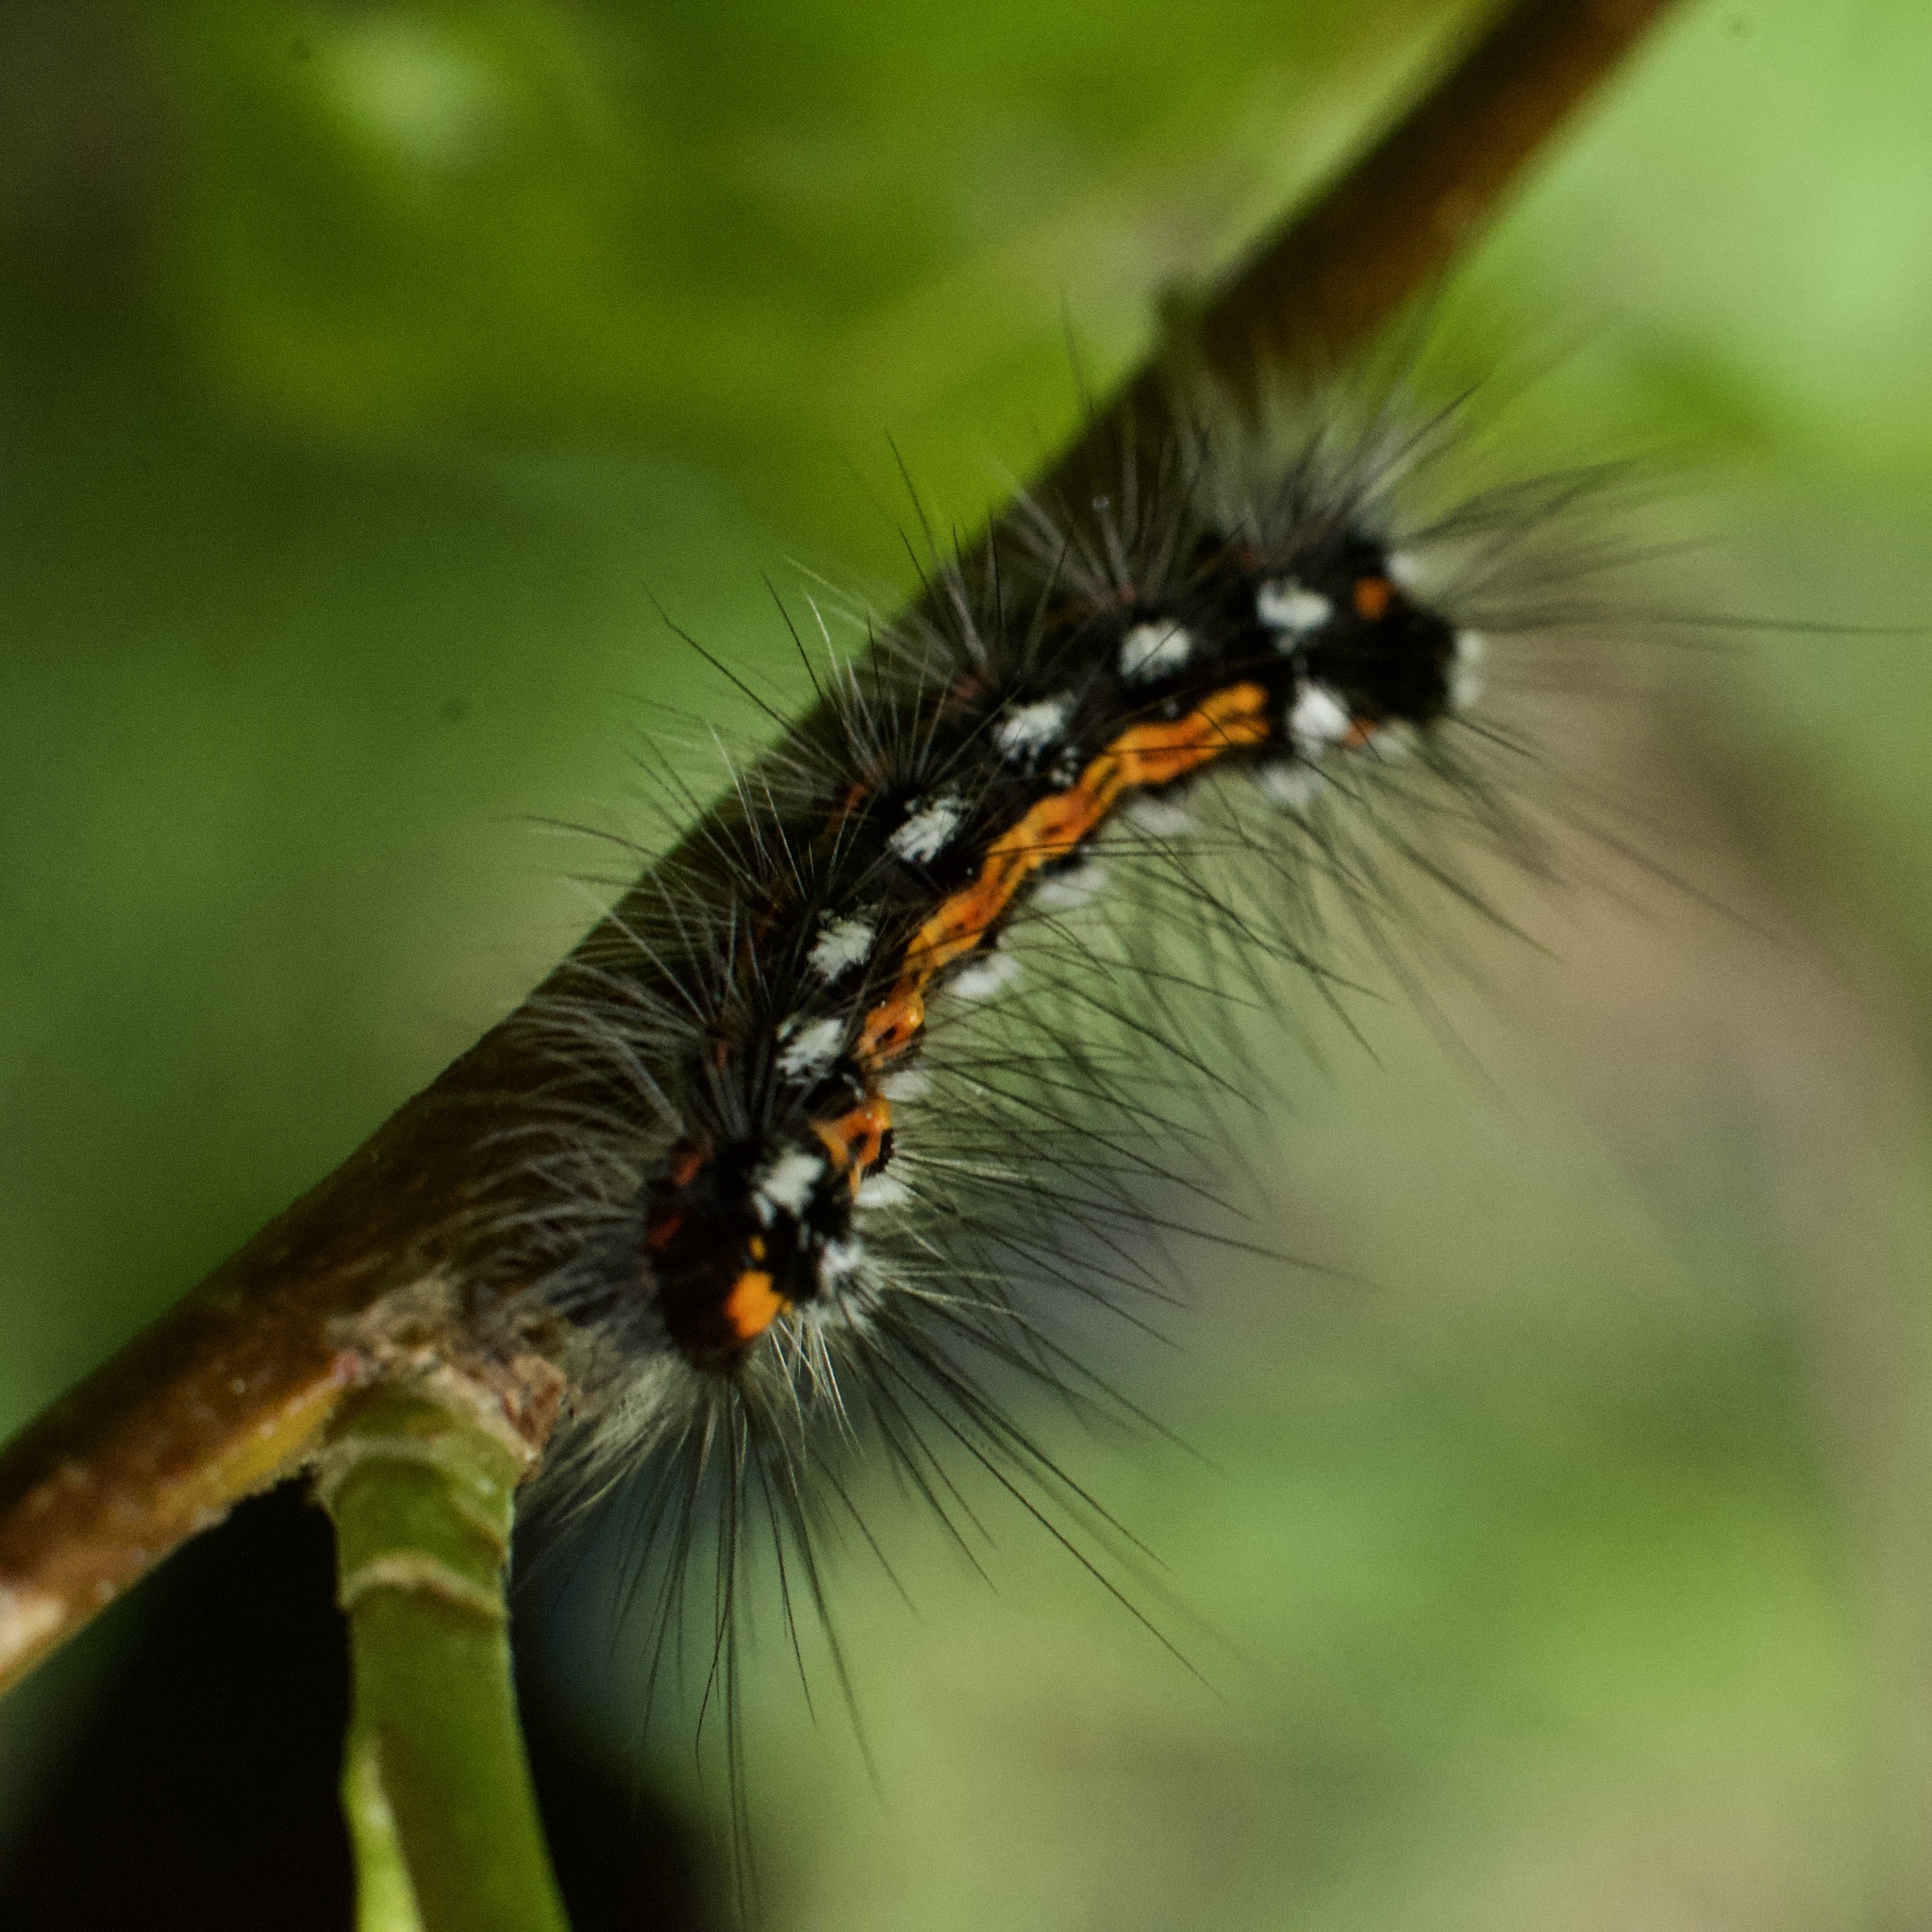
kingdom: Animalia
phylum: Arthropoda
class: Insecta
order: Lepidoptera
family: Erebidae
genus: Sphrageidus
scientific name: Sphrageidus similis
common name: Yellow-tail
